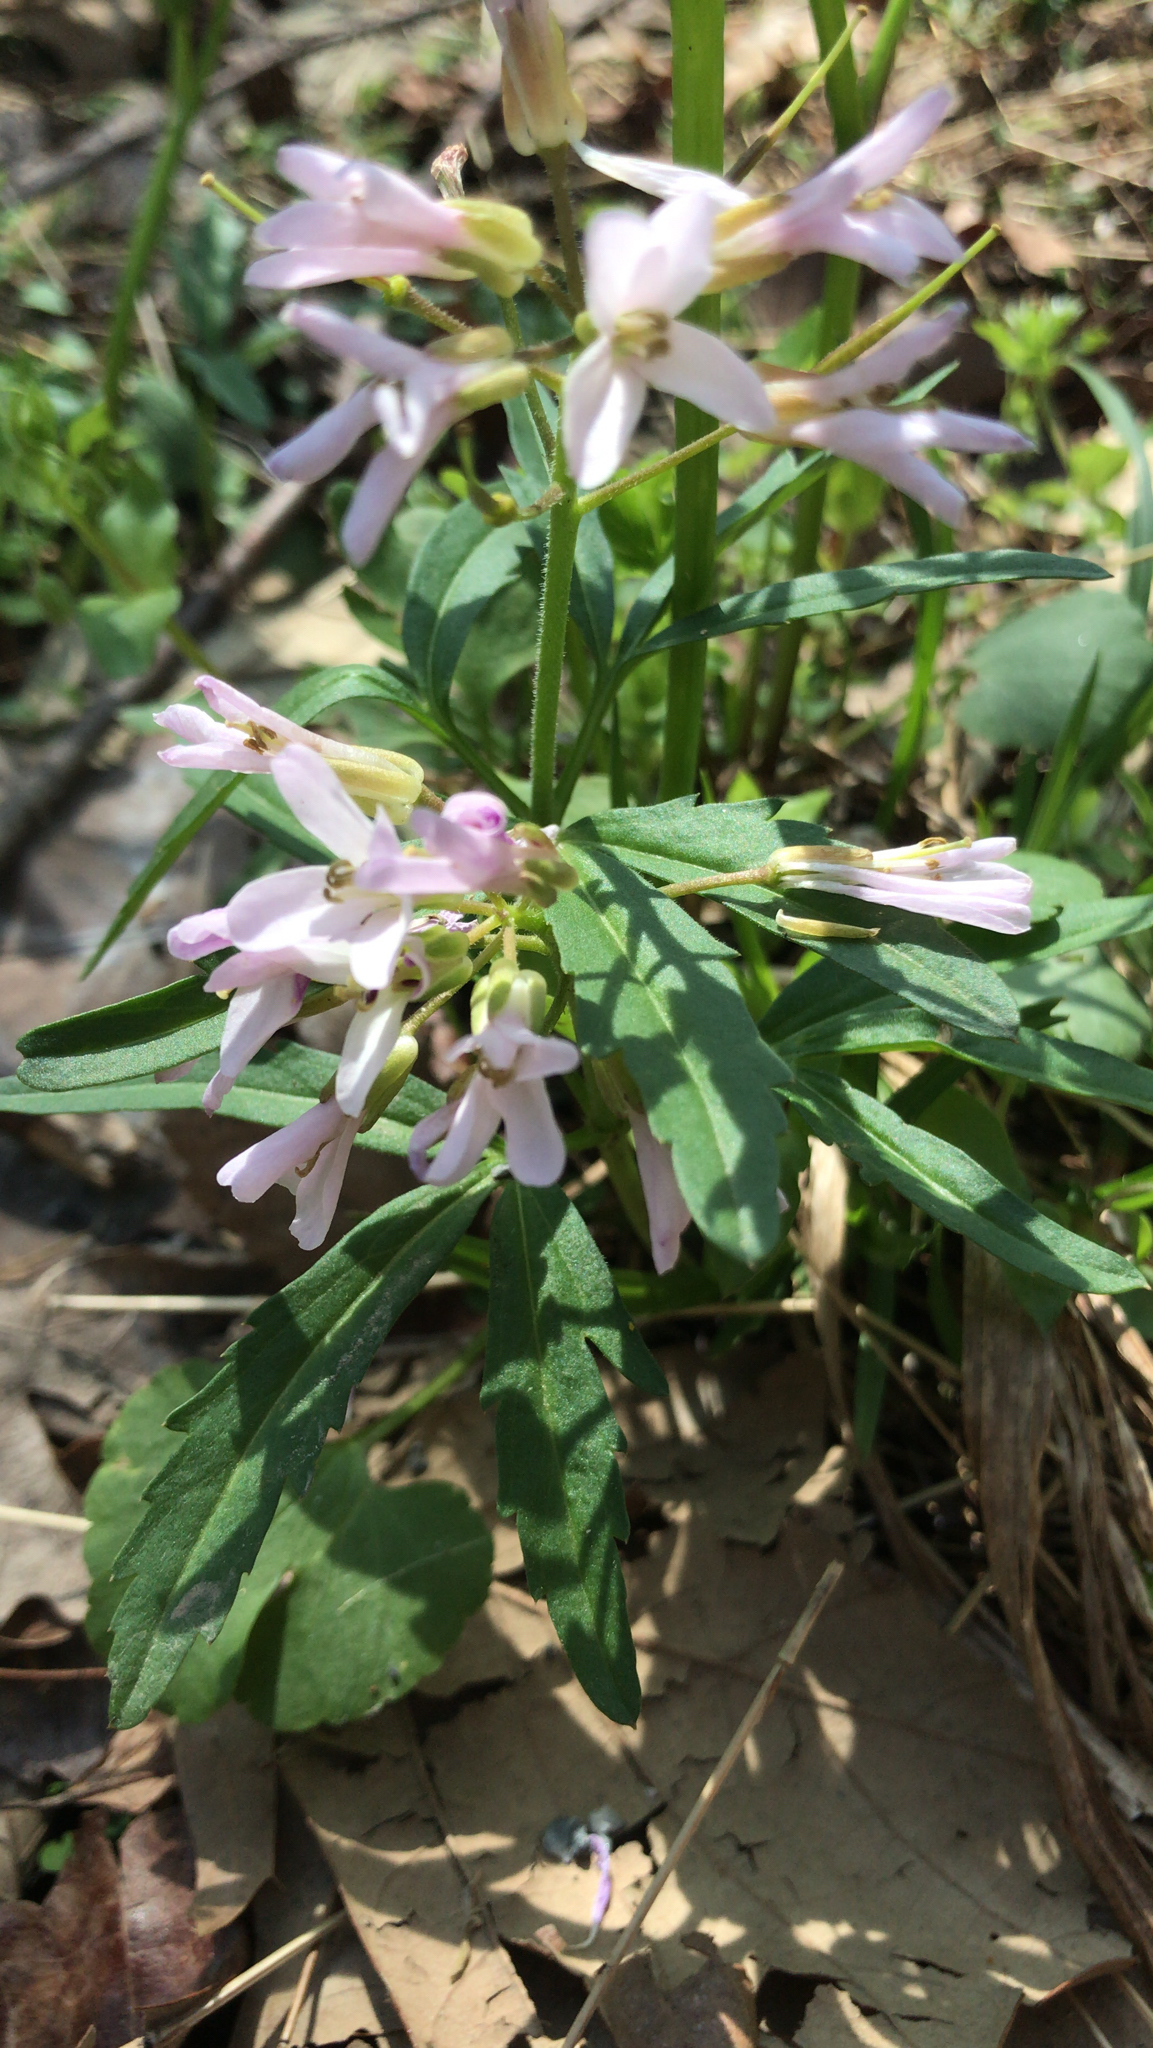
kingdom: Plantae
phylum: Tracheophyta
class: Magnoliopsida
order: Brassicales
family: Brassicaceae
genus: Cardamine
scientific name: Cardamine concatenata
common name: Cut-leaf toothcup
